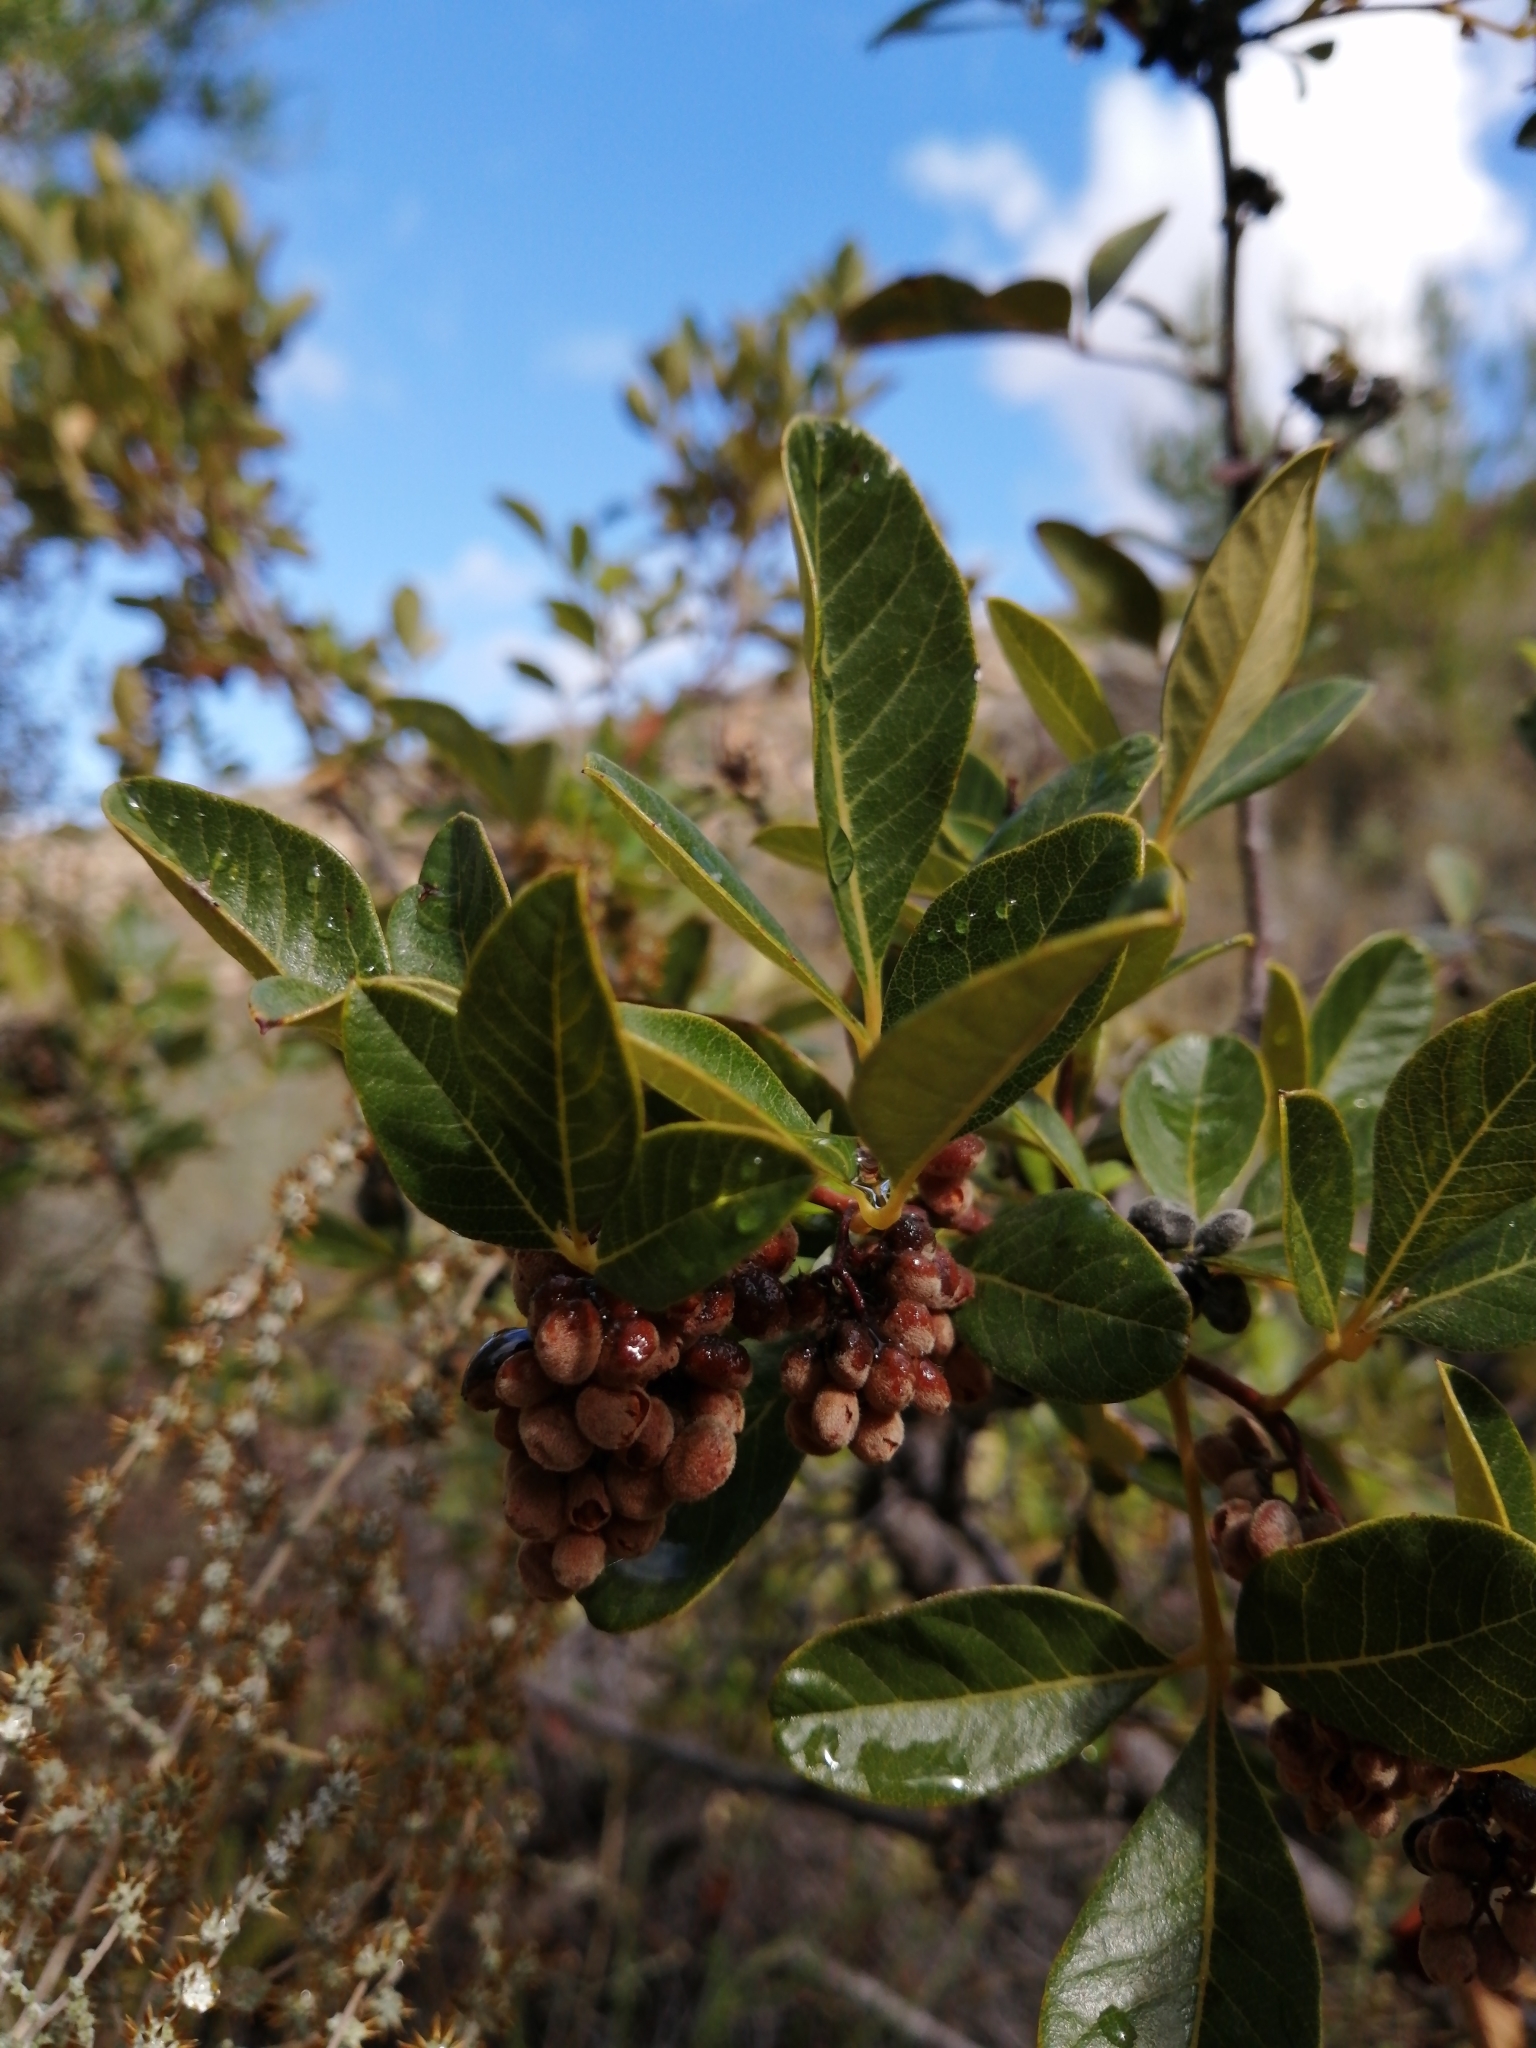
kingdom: Plantae
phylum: Tracheophyta
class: Magnoliopsida
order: Sapindales
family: Anacardiaceae
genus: Searsia
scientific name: Searsia tomentosa
